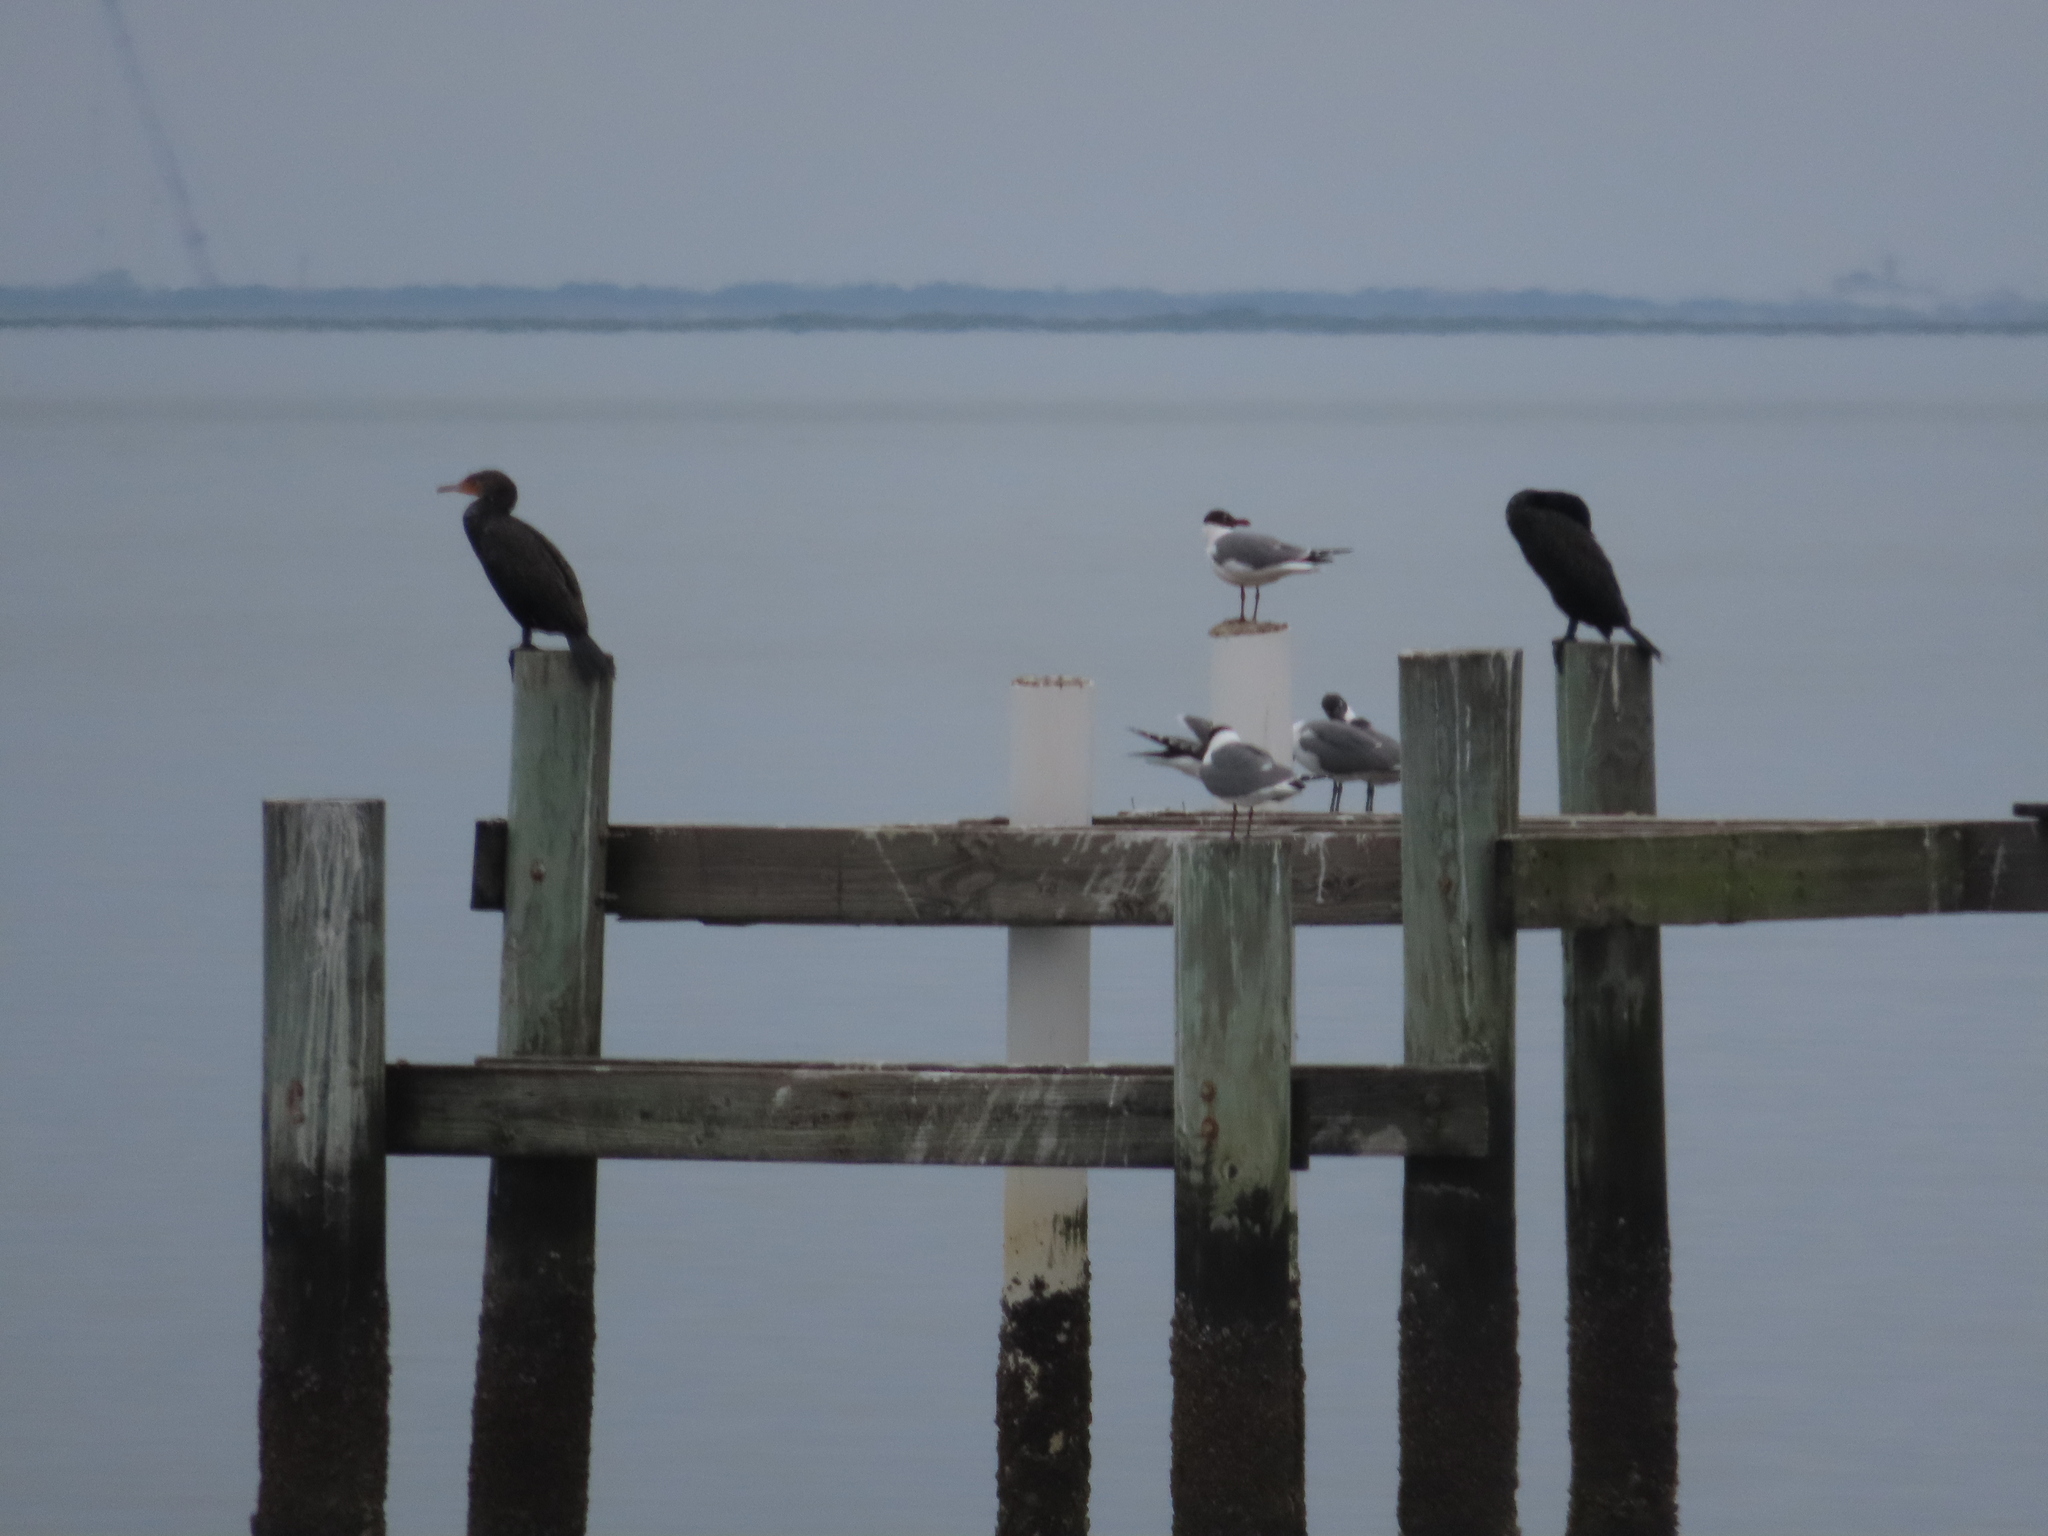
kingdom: Animalia
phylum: Chordata
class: Aves
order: Charadriiformes
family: Laridae
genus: Leucophaeus
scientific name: Leucophaeus atricilla
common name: Laughing gull
